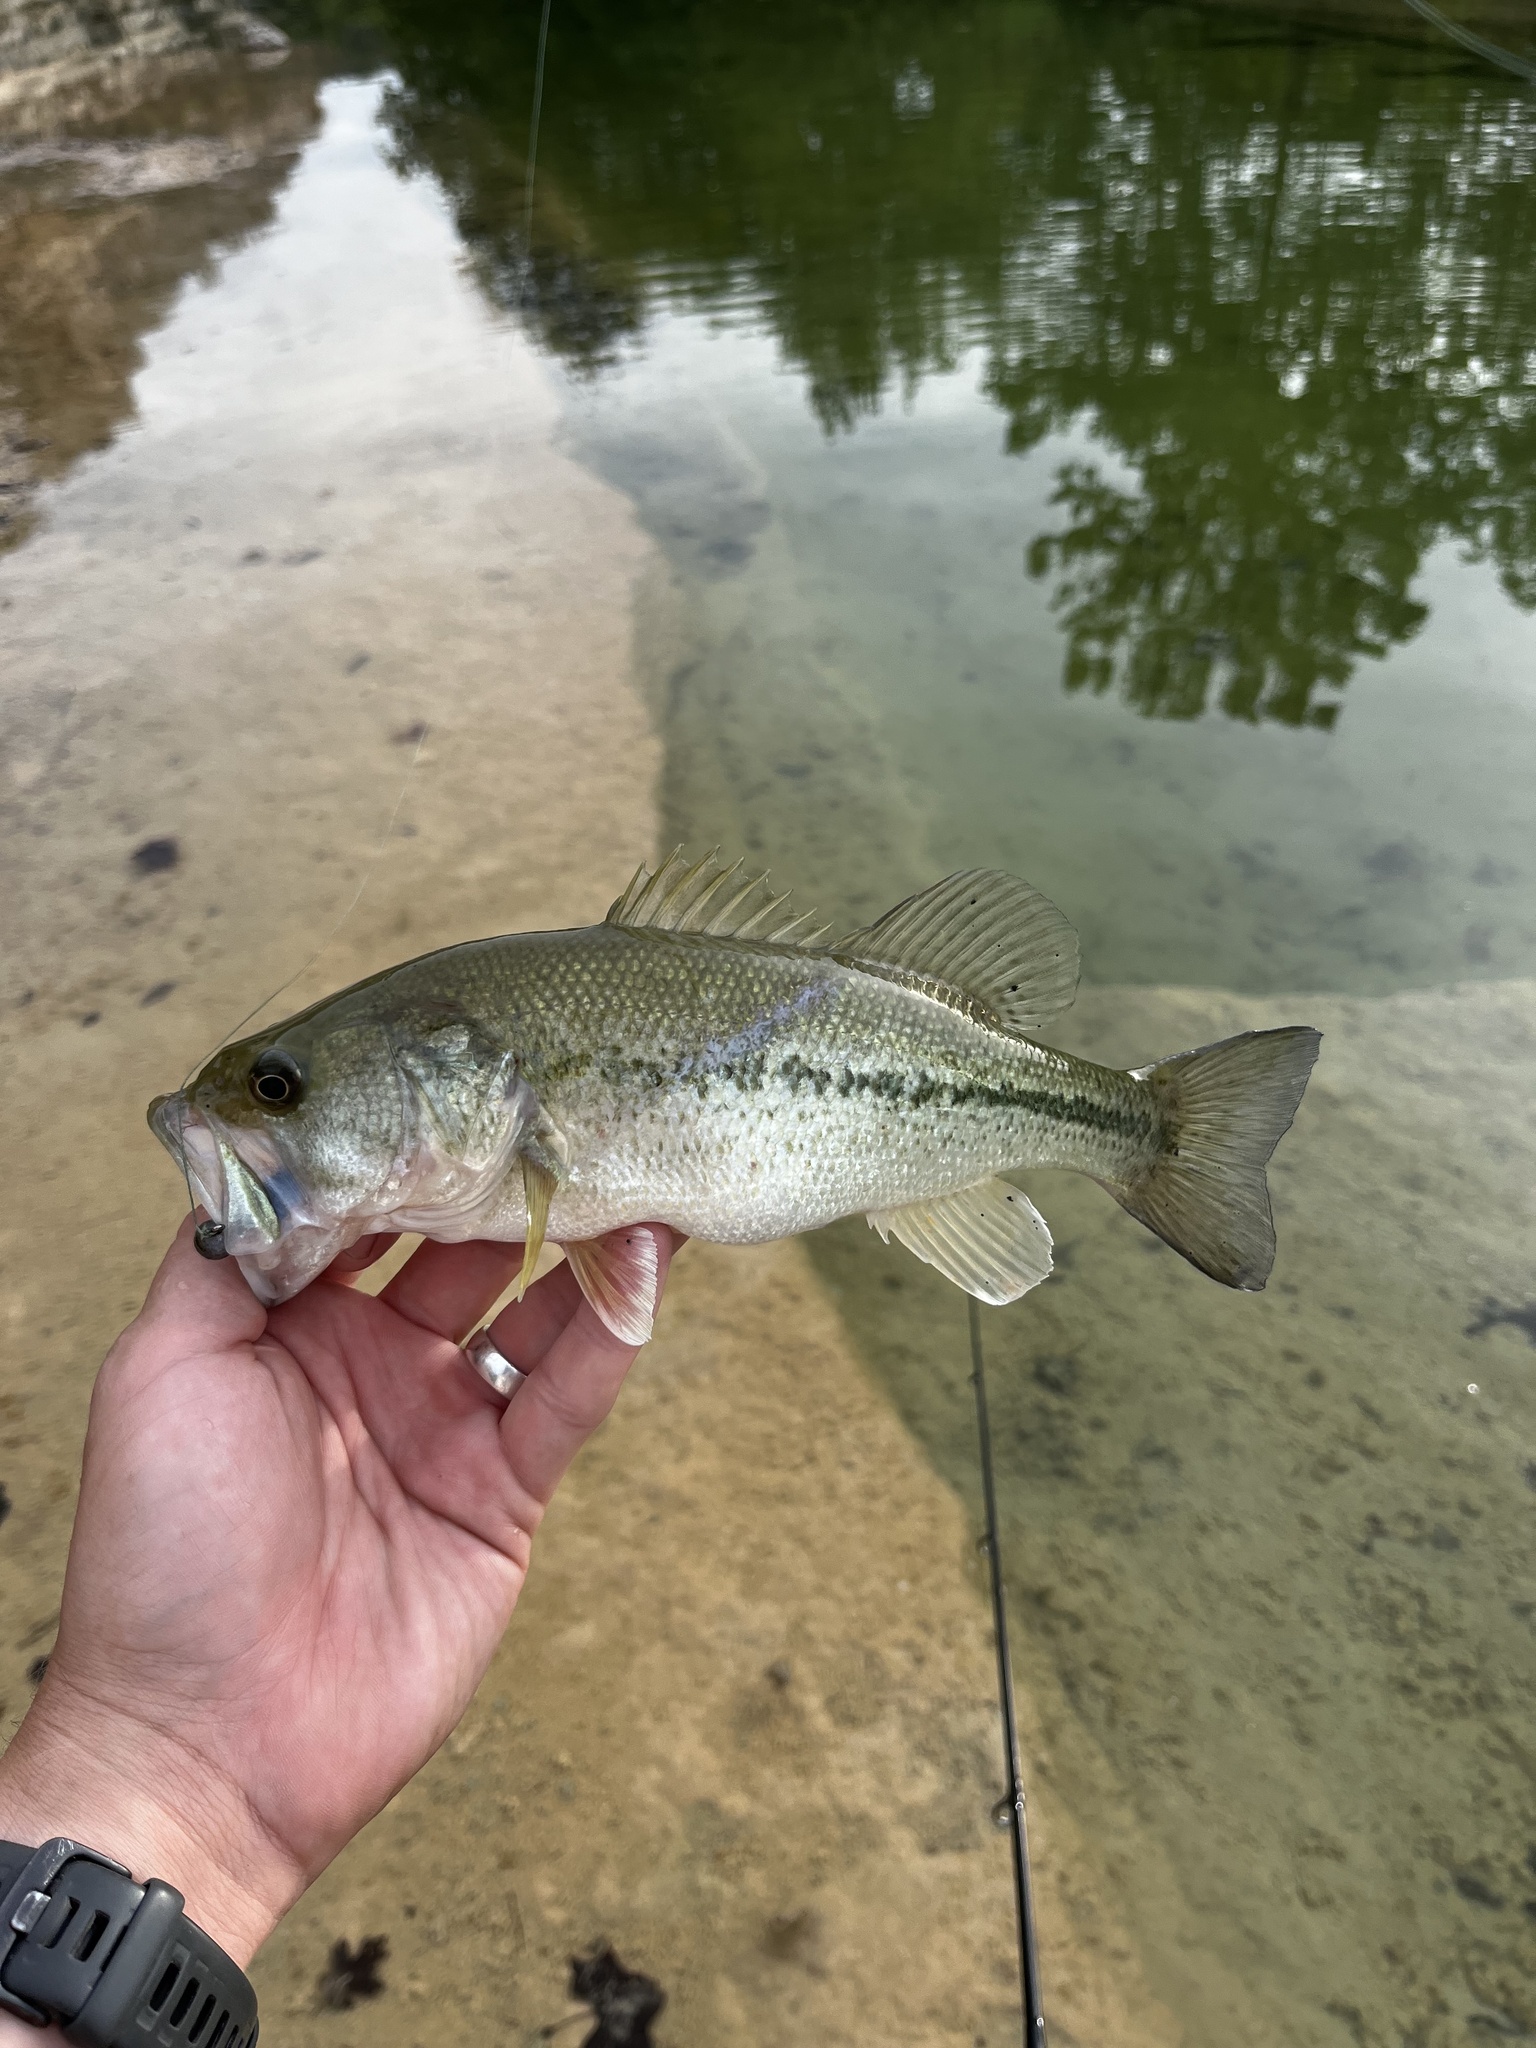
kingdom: Animalia
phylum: Chordata
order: Perciformes
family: Centrarchidae
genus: Micropterus
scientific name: Micropterus
